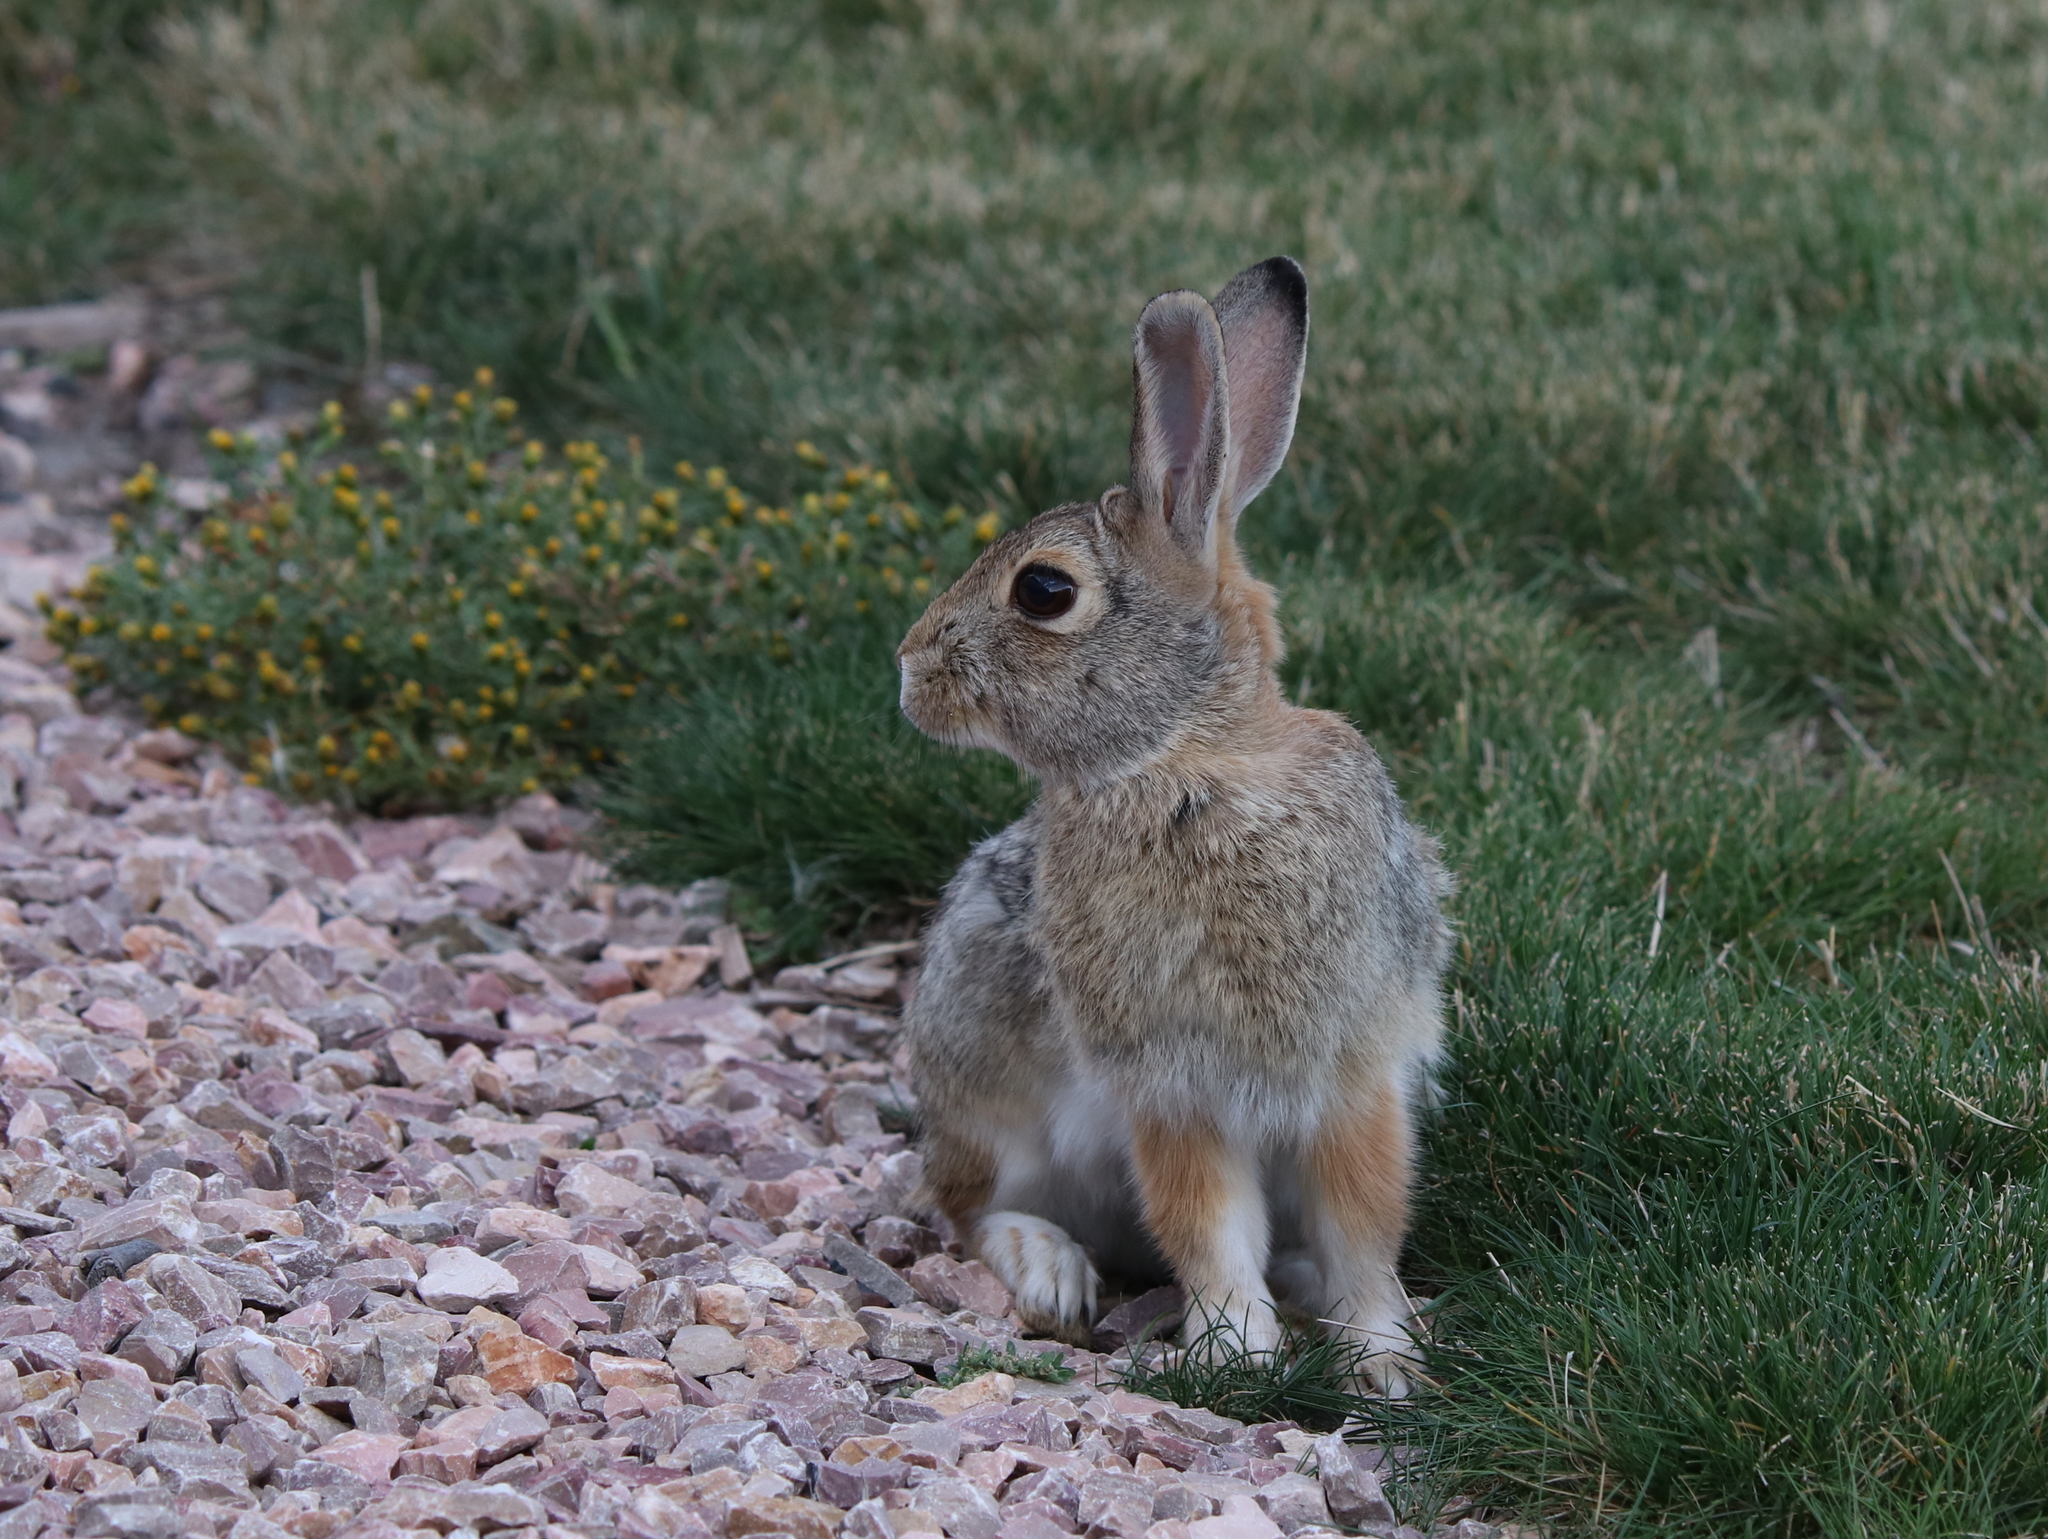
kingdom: Animalia
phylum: Chordata
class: Mammalia
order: Lagomorpha
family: Leporidae
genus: Sylvilagus
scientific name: Sylvilagus audubonii
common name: Desert cottontail
